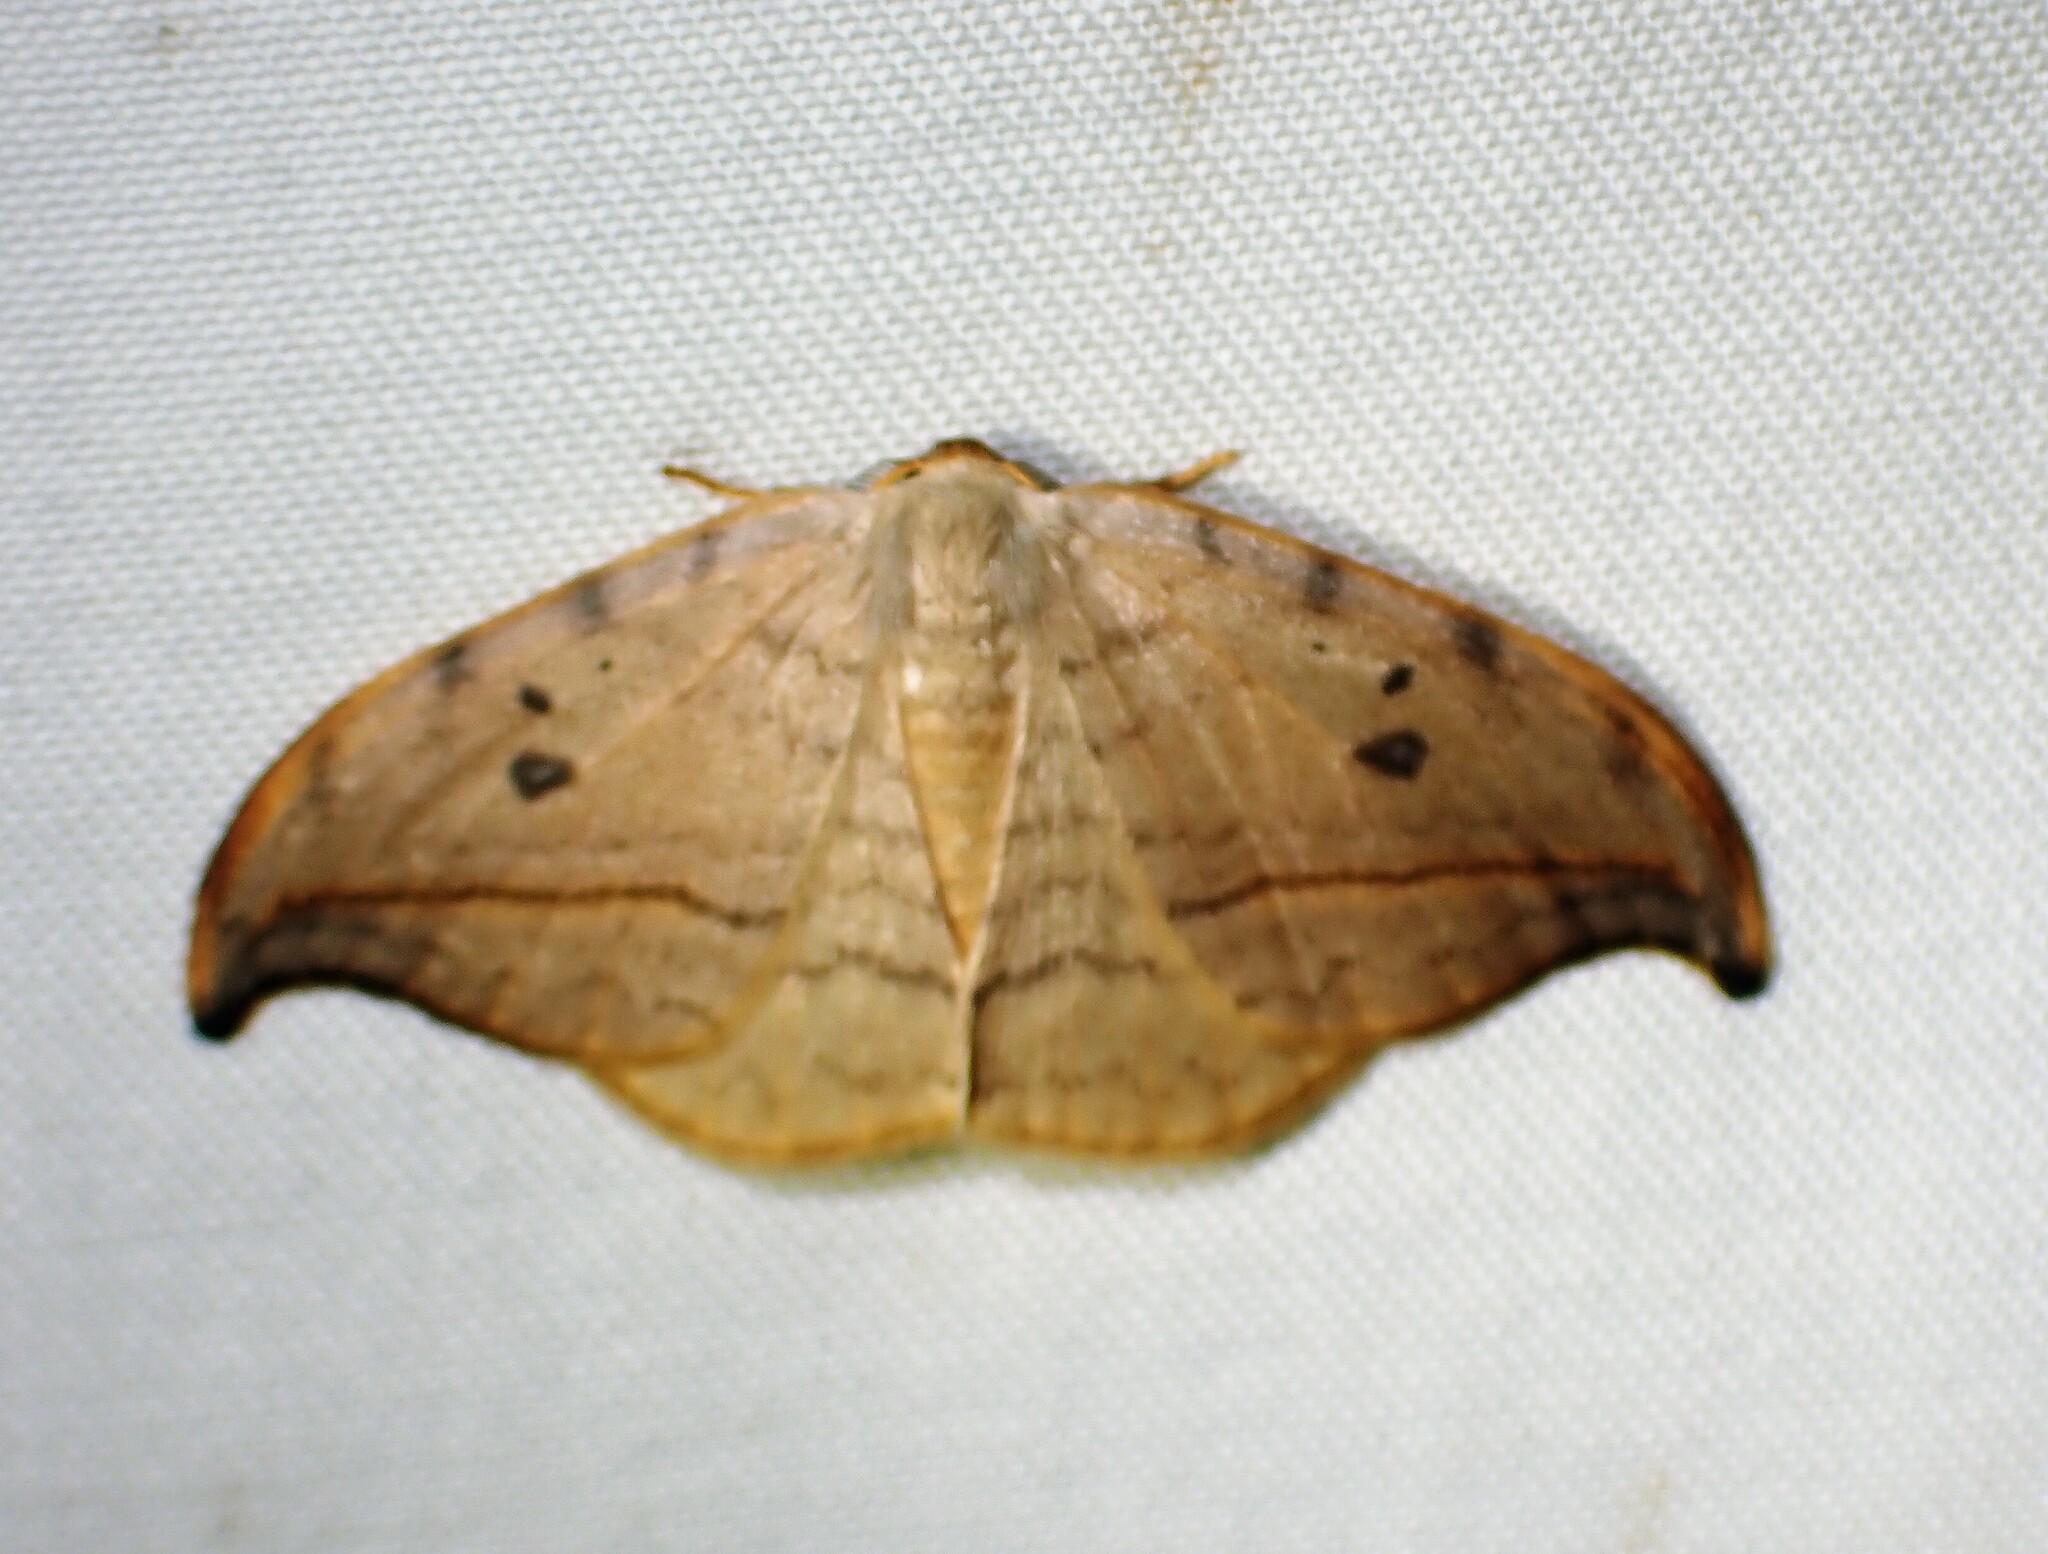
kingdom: Animalia
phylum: Arthropoda
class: Insecta
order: Lepidoptera
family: Drepanidae
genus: Drepana
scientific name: Drepana arcuata
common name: Arched hooktip moth
